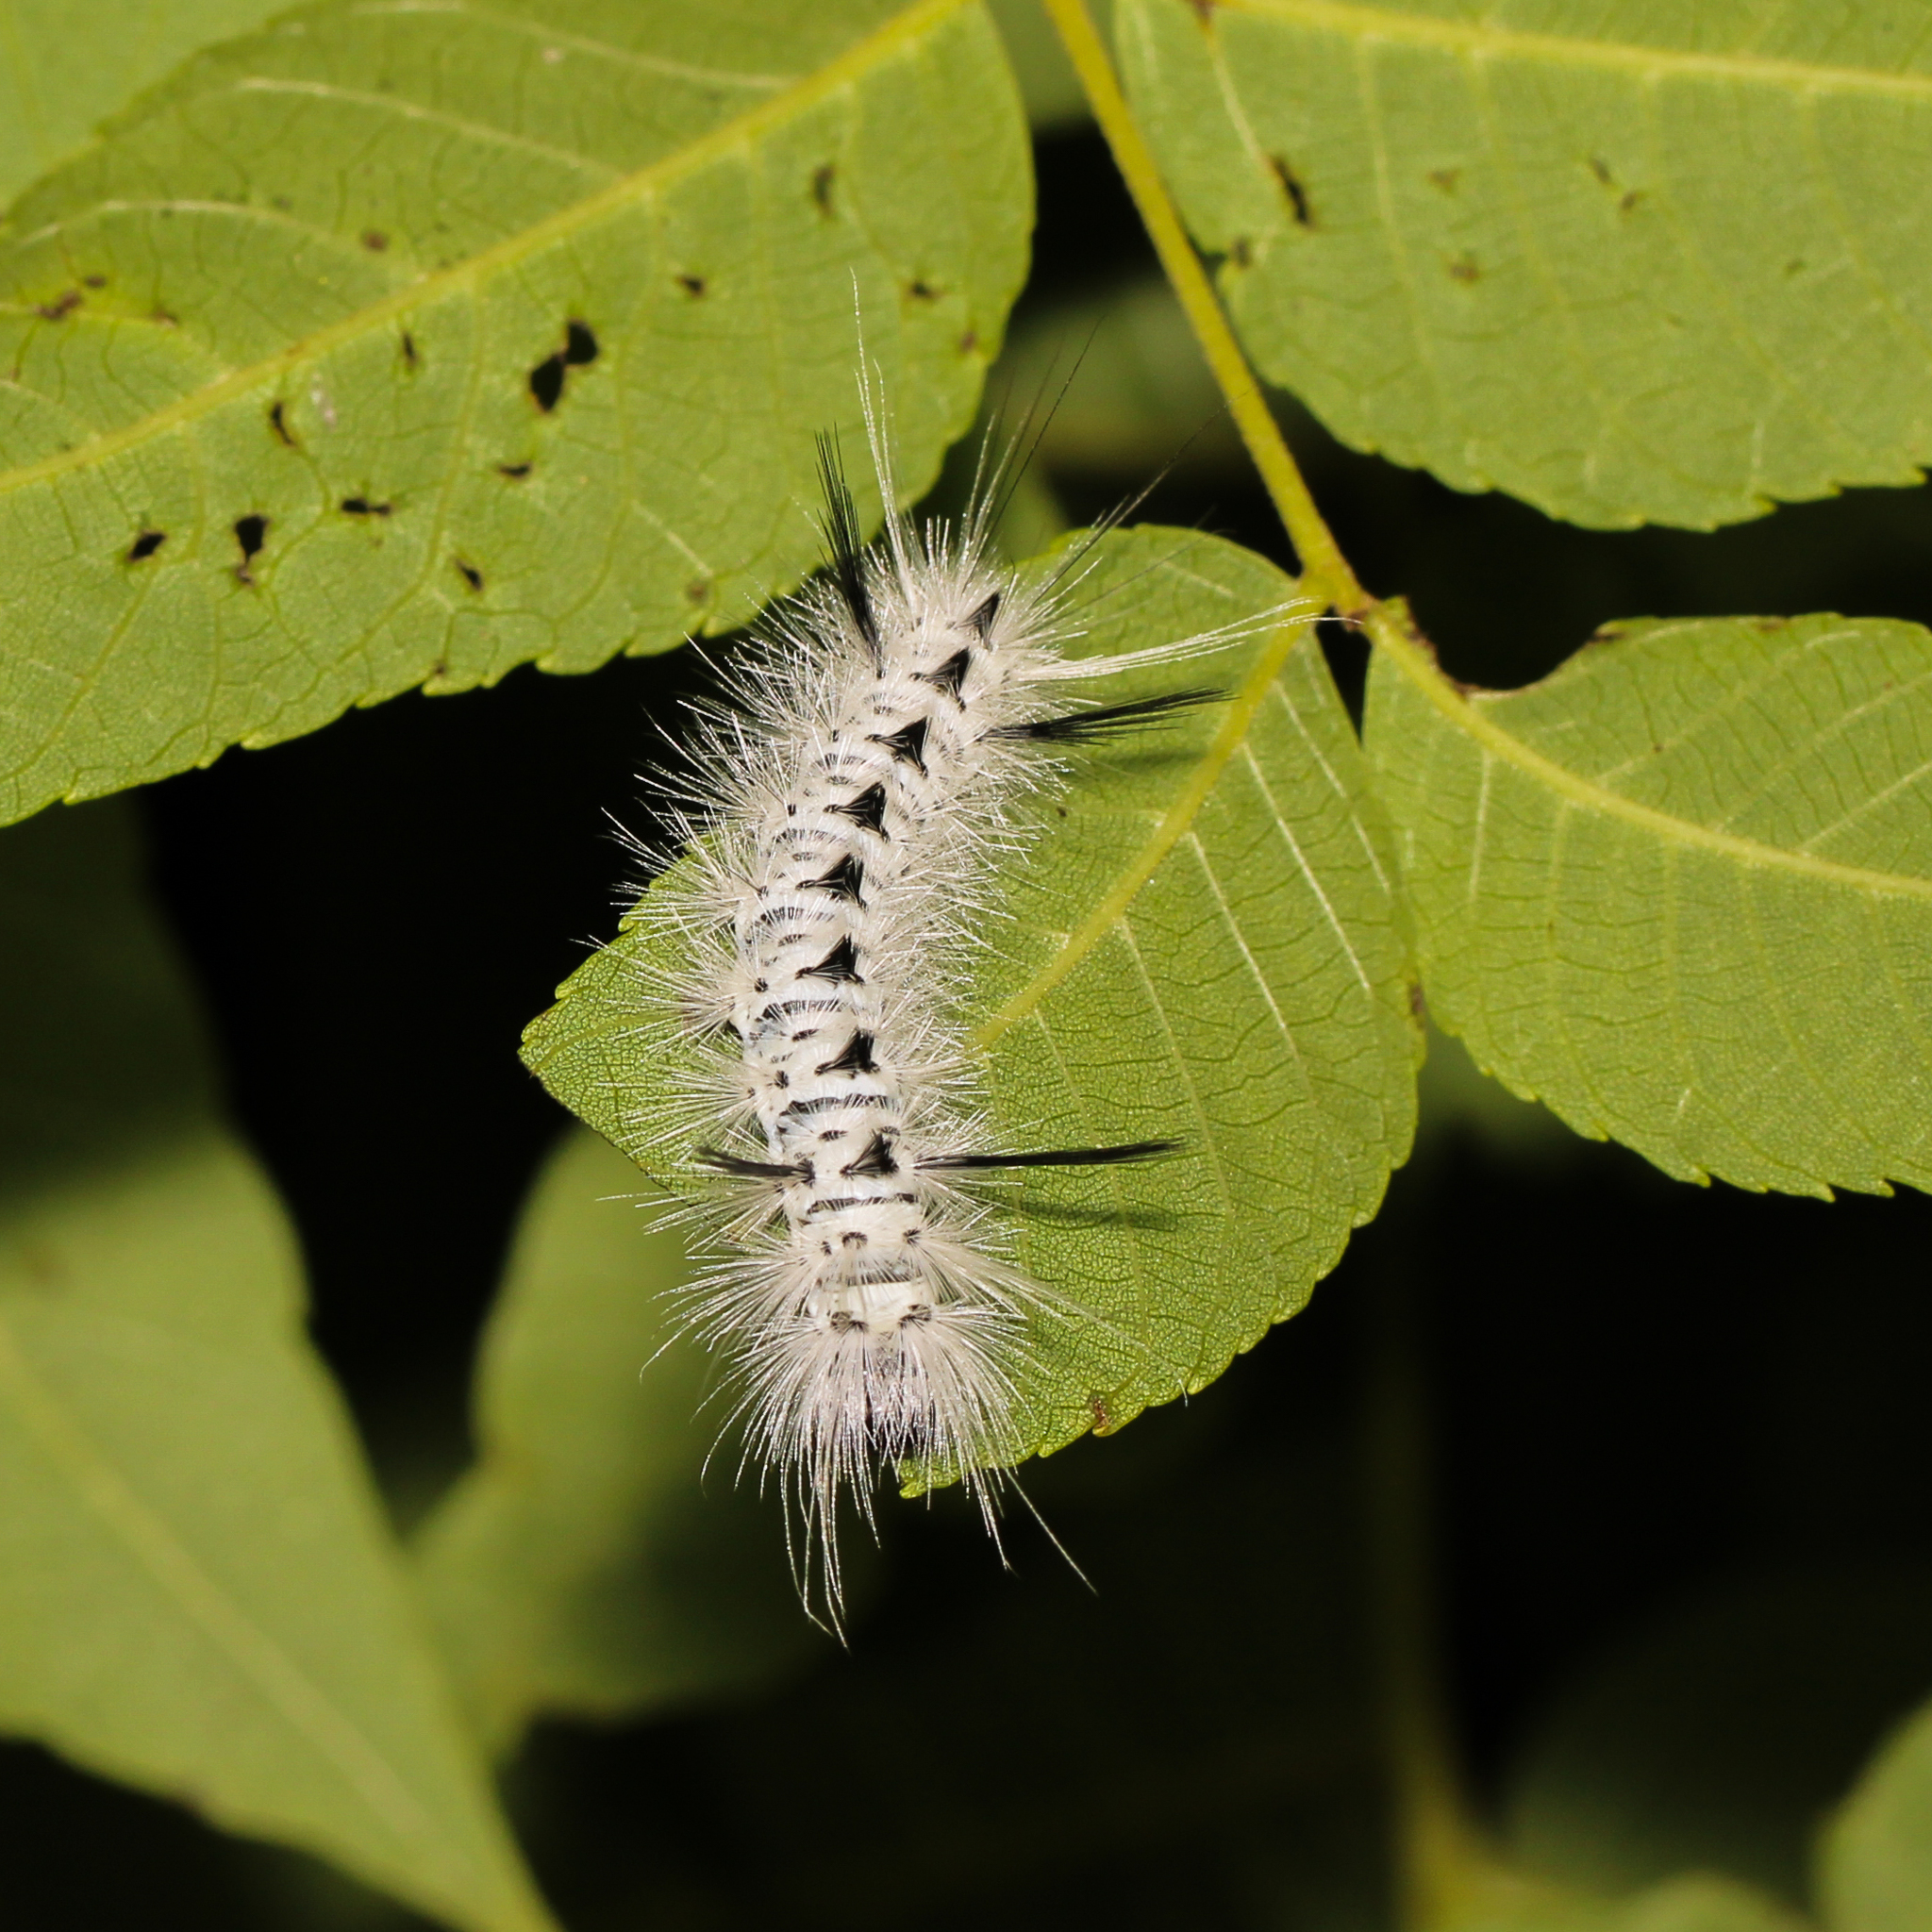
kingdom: Animalia
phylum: Arthropoda
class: Insecta
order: Lepidoptera
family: Erebidae
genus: Lophocampa
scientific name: Lophocampa caryae
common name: Hickory tussock moth
